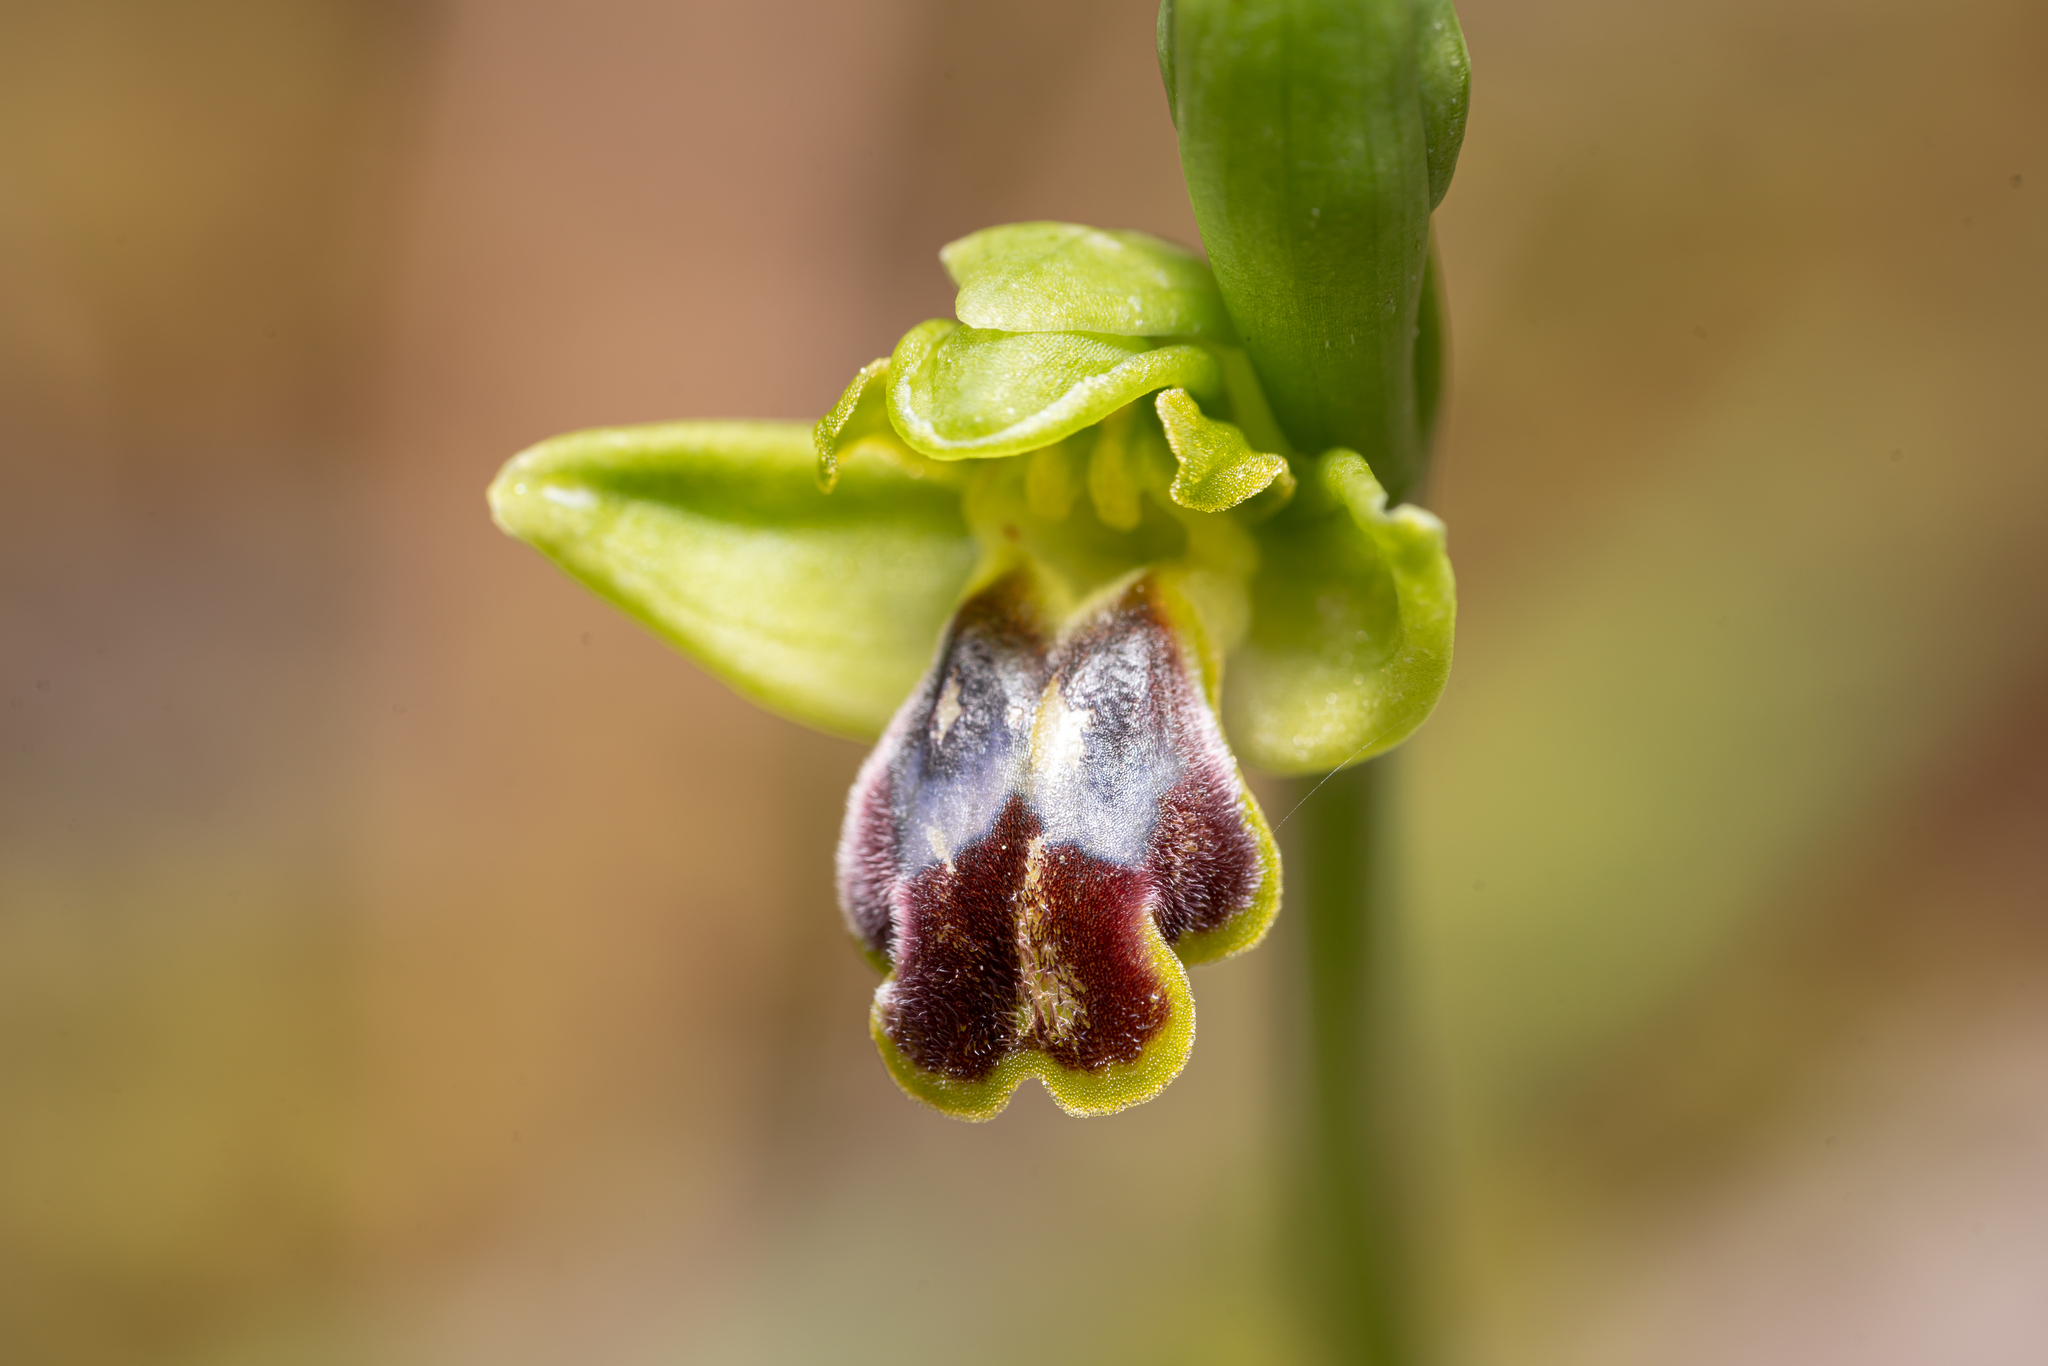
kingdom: Plantae
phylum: Tracheophyta
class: Liliopsida
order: Asparagales
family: Orchidaceae
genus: Ophrys
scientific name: Ophrys fusca
